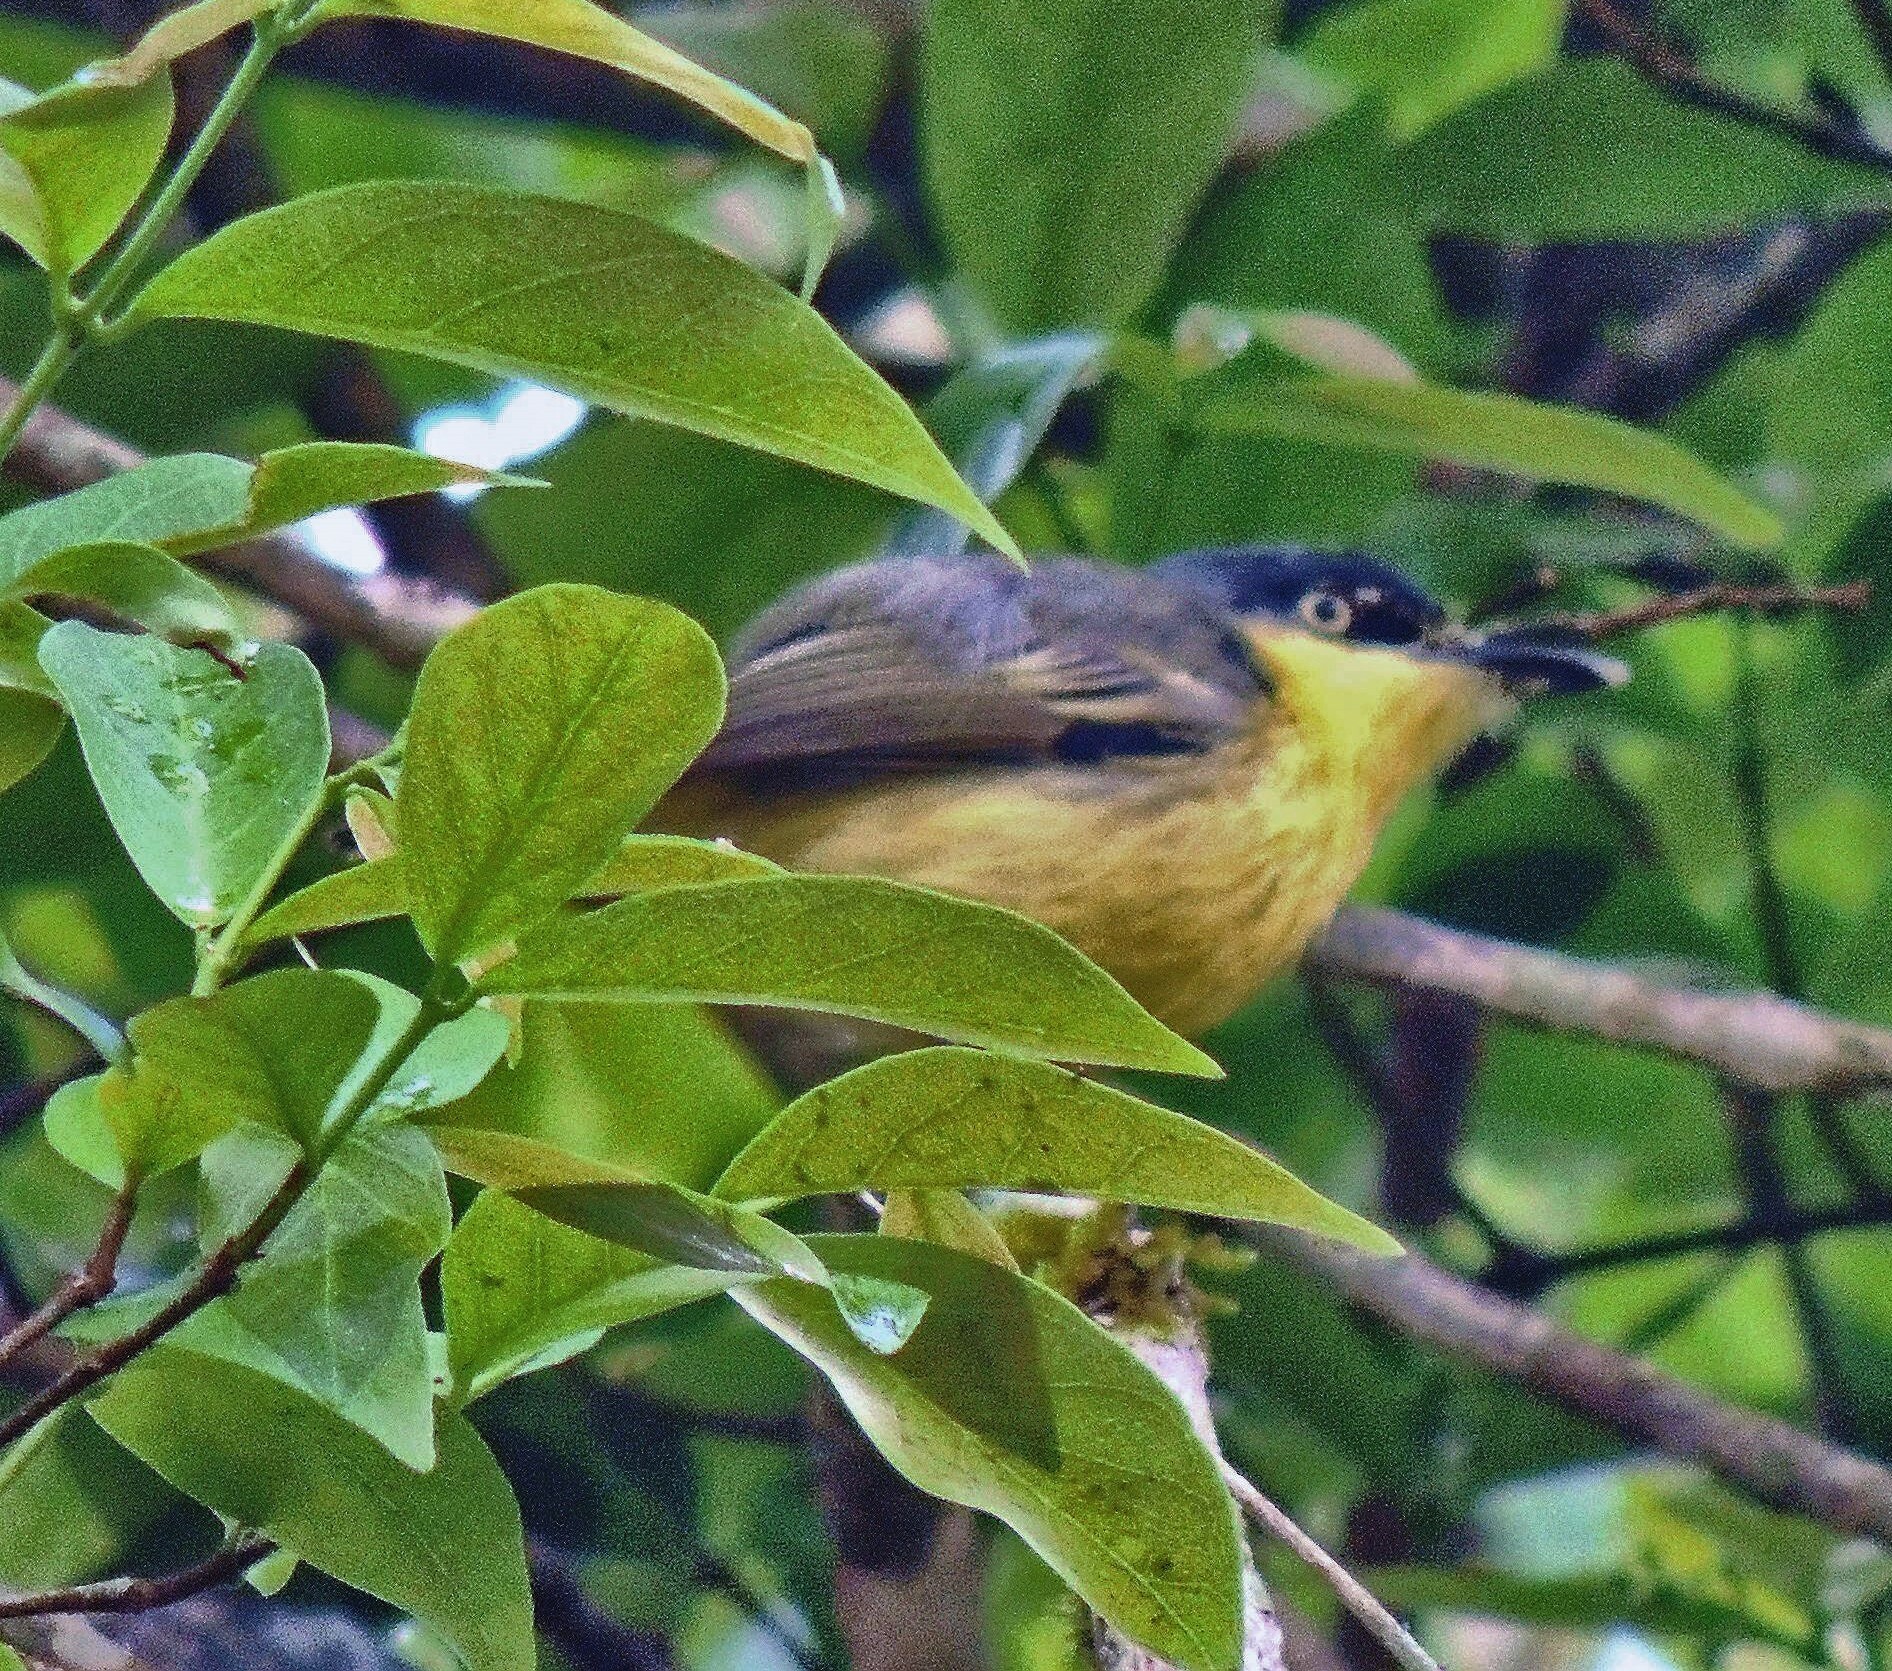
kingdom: Animalia
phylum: Chordata
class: Aves
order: Passeriformes
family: Tyrannidae
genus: Todirostrum
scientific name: Todirostrum cinereum
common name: Common tody-flycatcher
